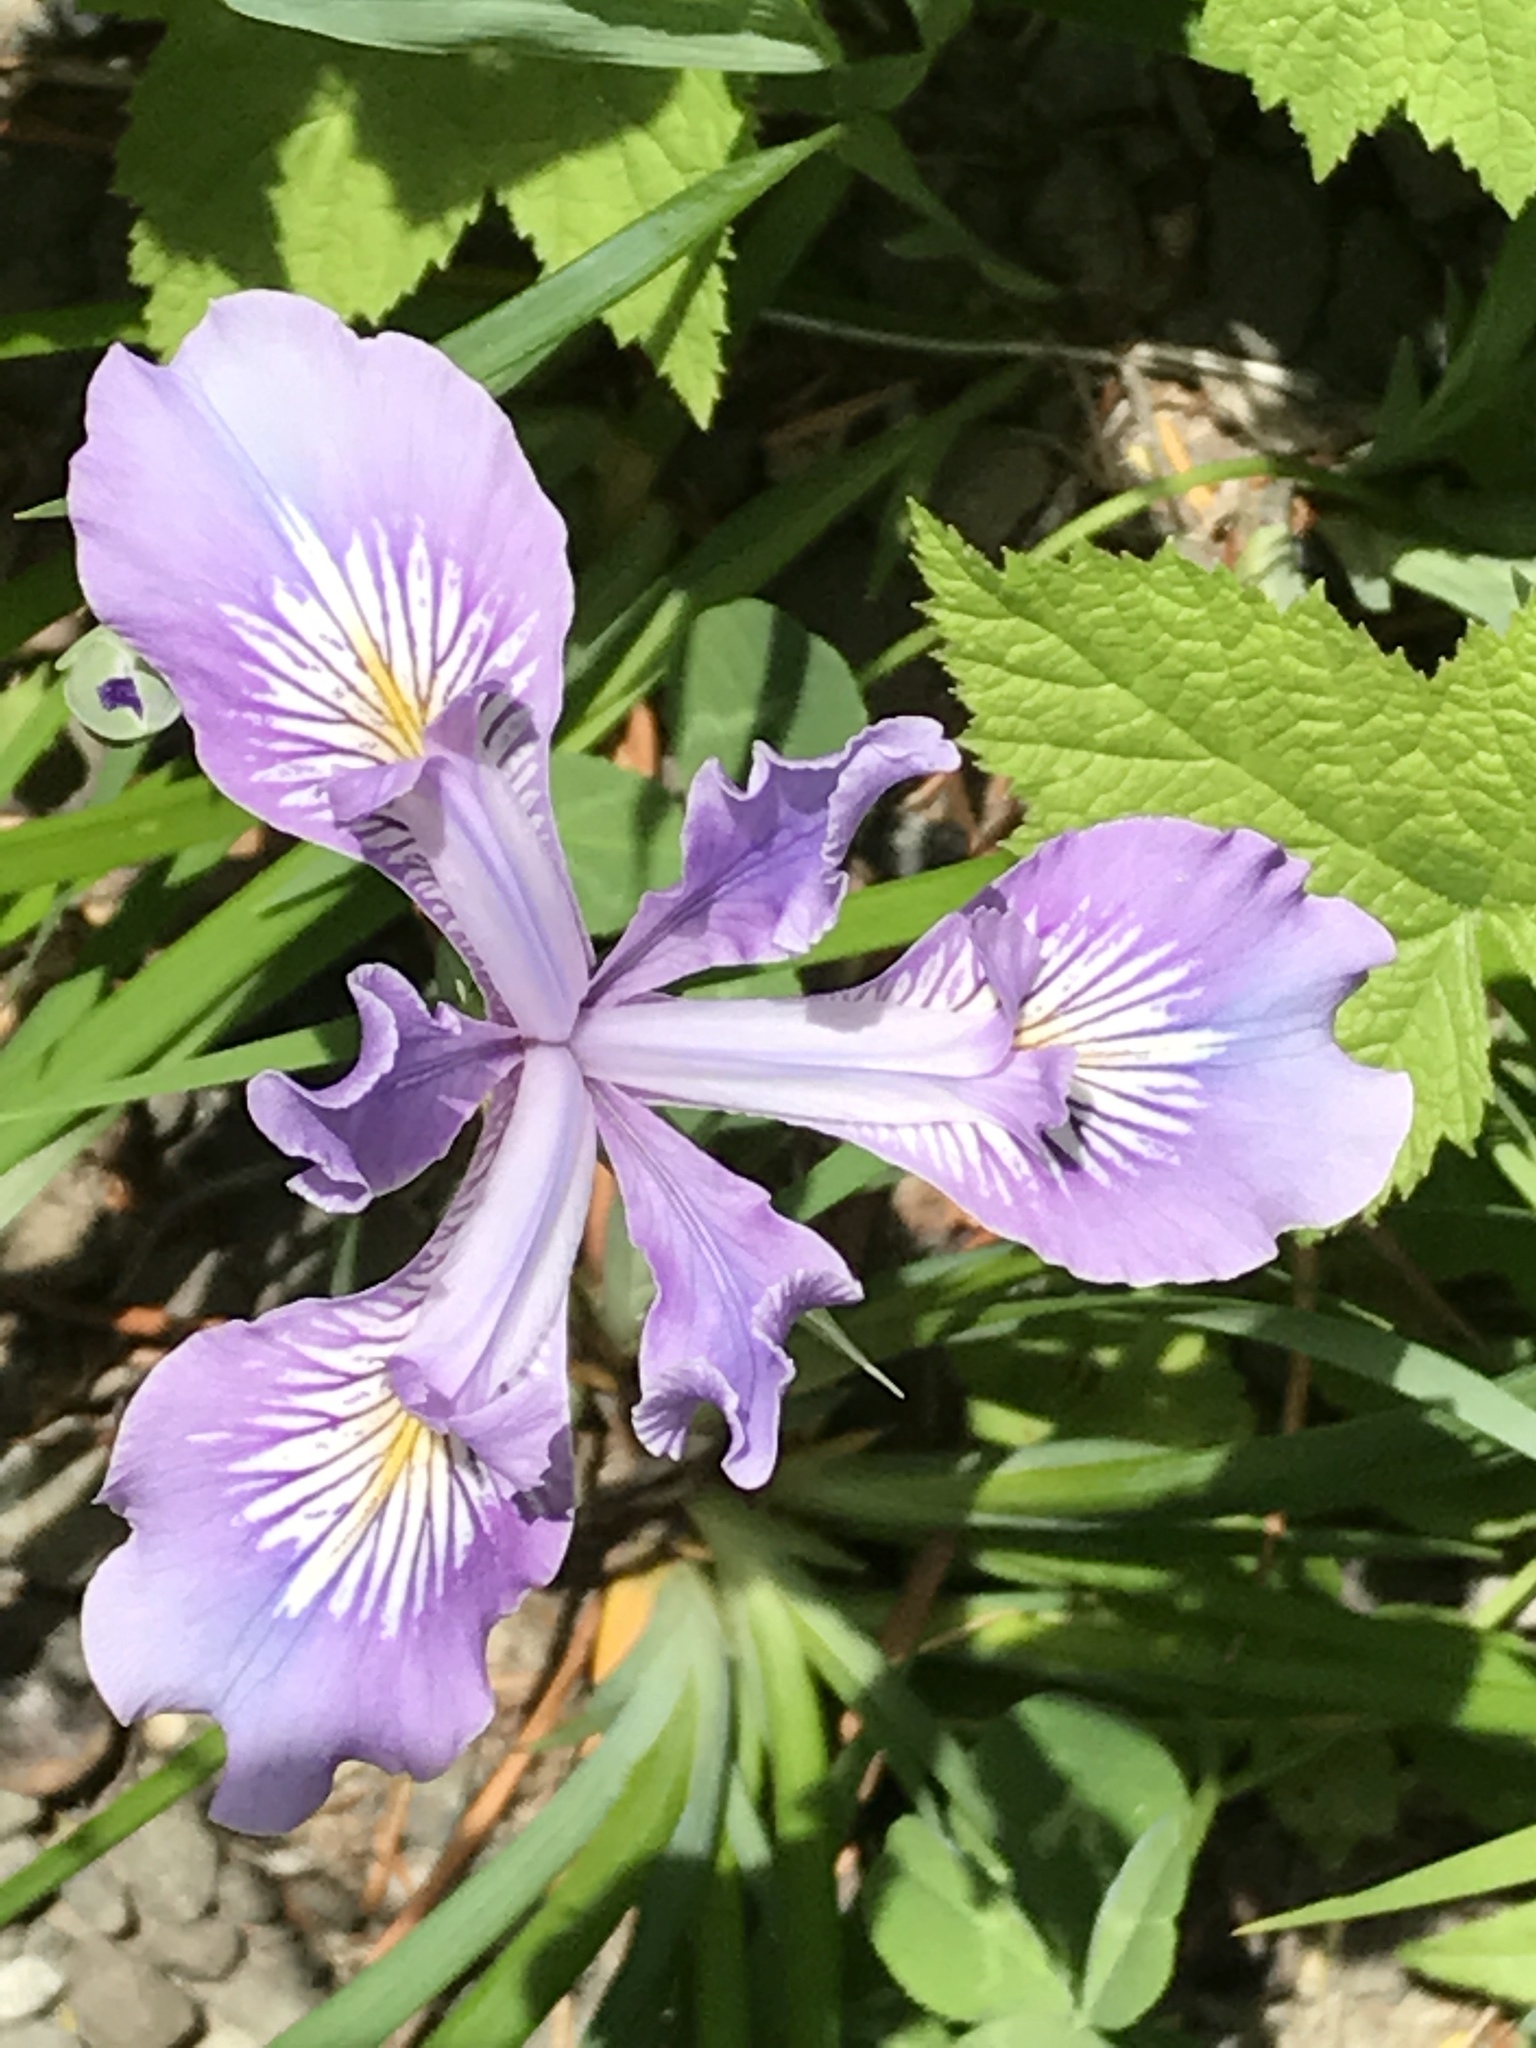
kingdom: Plantae
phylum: Tracheophyta
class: Liliopsida
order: Asparagales
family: Iridaceae
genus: Iris
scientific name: Iris tenax
